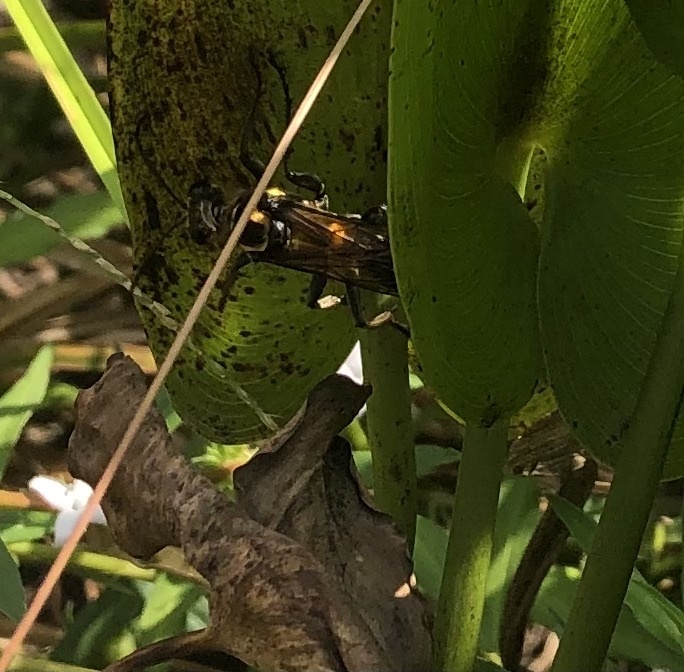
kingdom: Animalia
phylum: Arthropoda
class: Insecta
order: Hymenoptera
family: Sphecidae
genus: Sphex
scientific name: Sphex habenus
